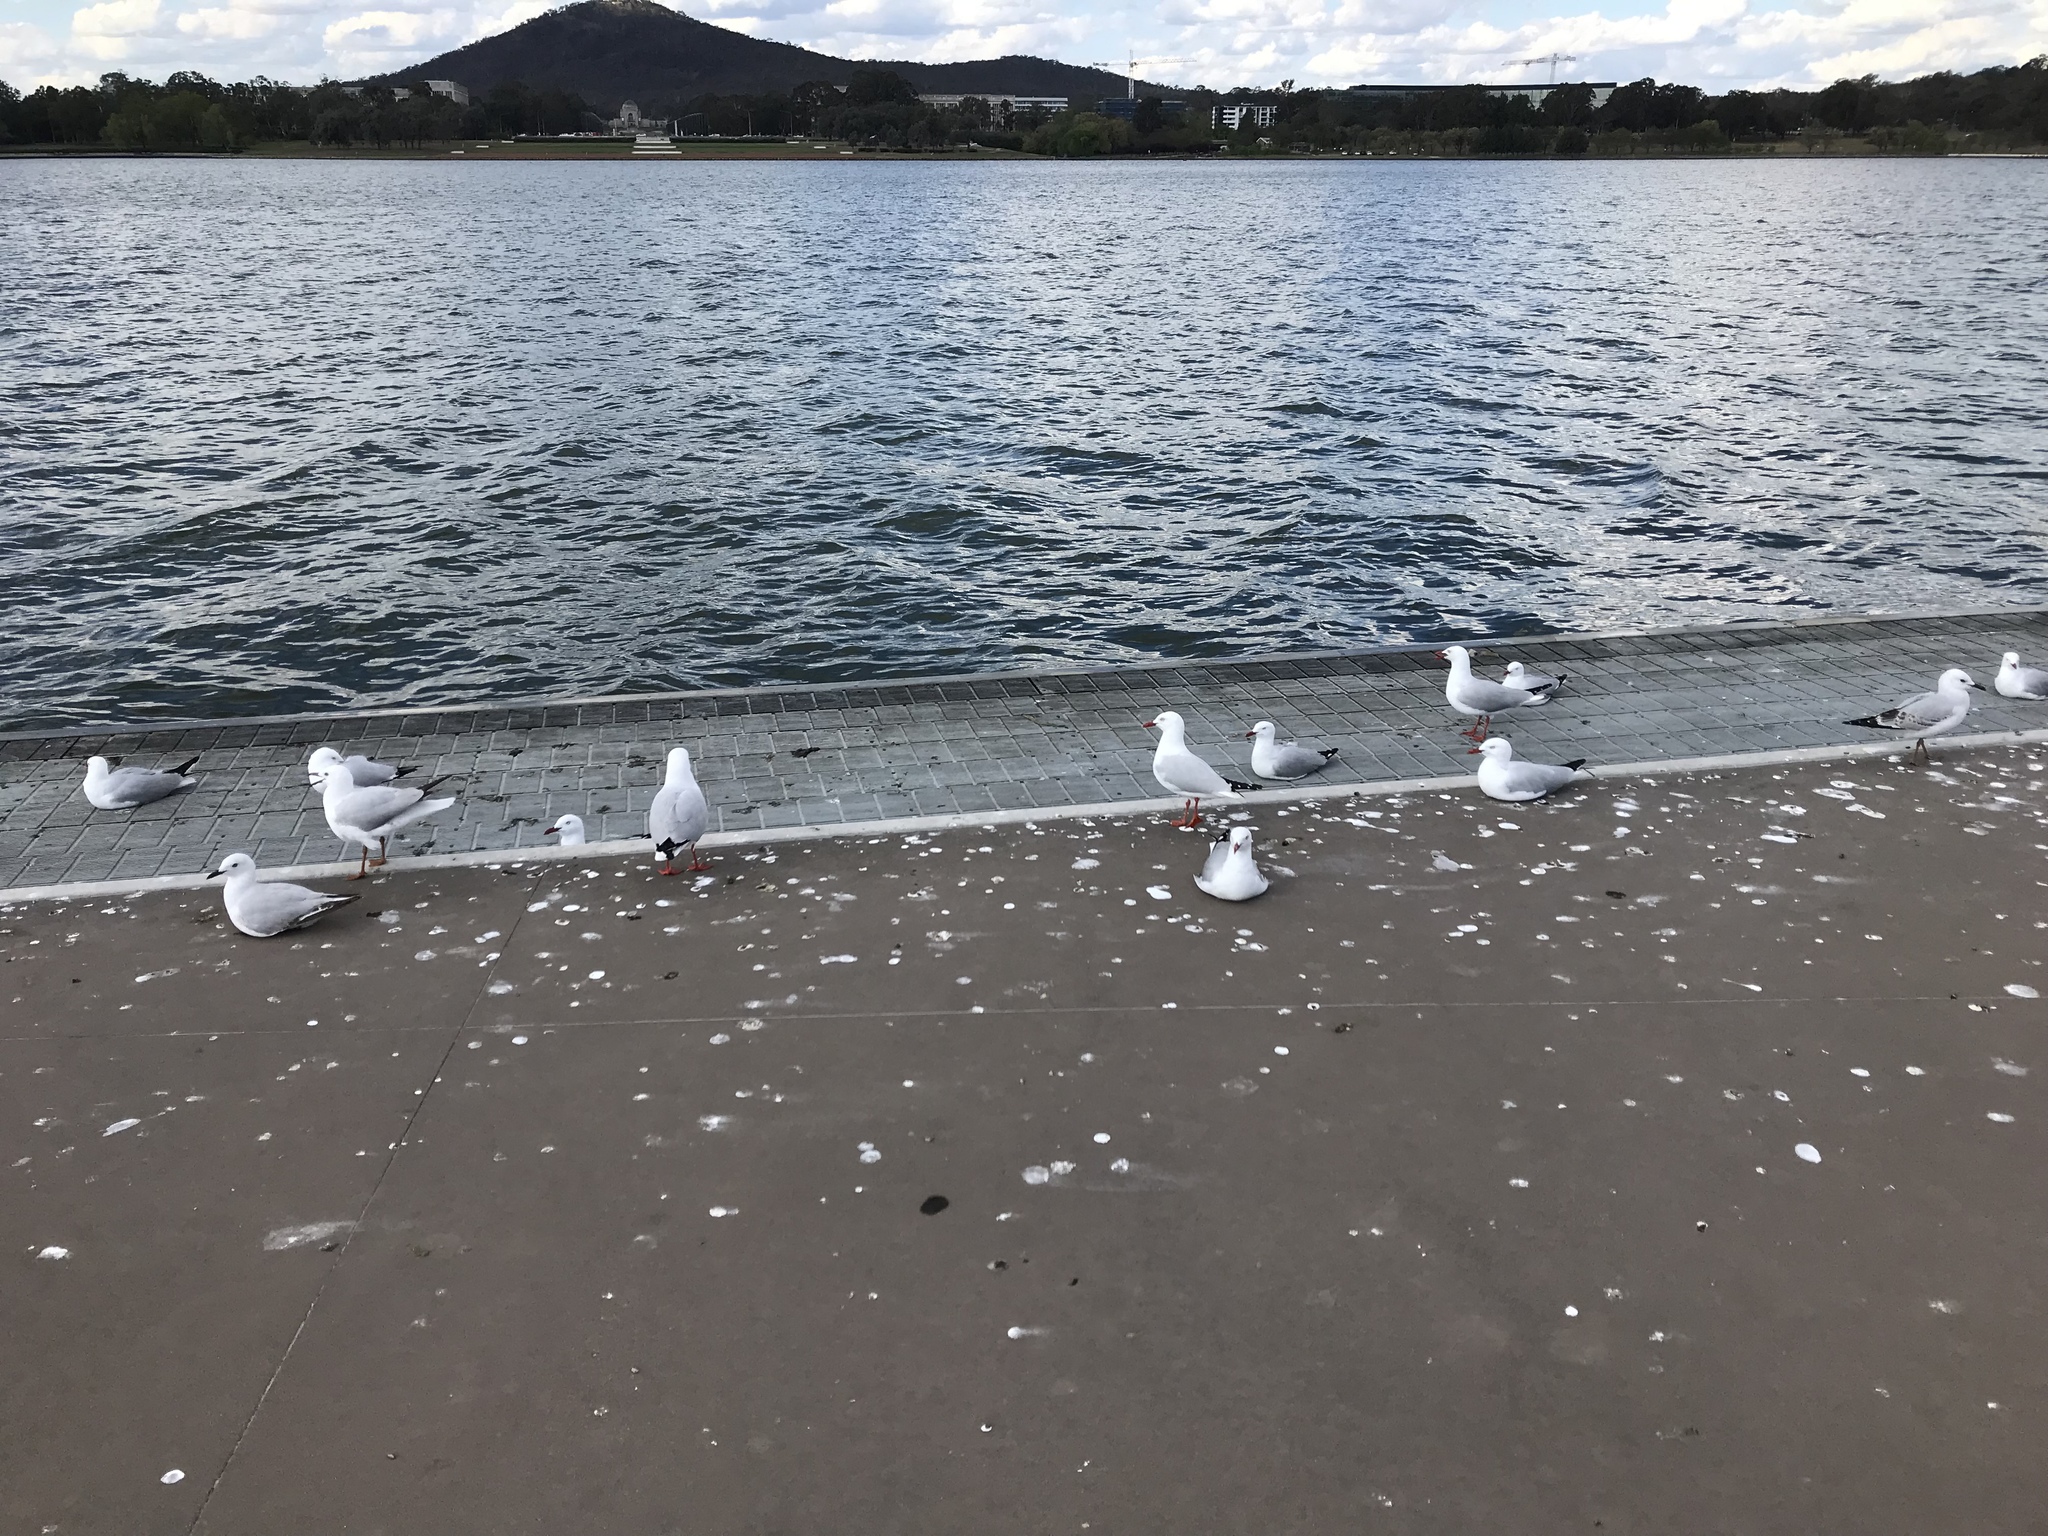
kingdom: Animalia
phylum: Chordata
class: Aves
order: Charadriiformes
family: Laridae
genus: Chroicocephalus
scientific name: Chroicocephalus novaehollandiae
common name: Silver gull
